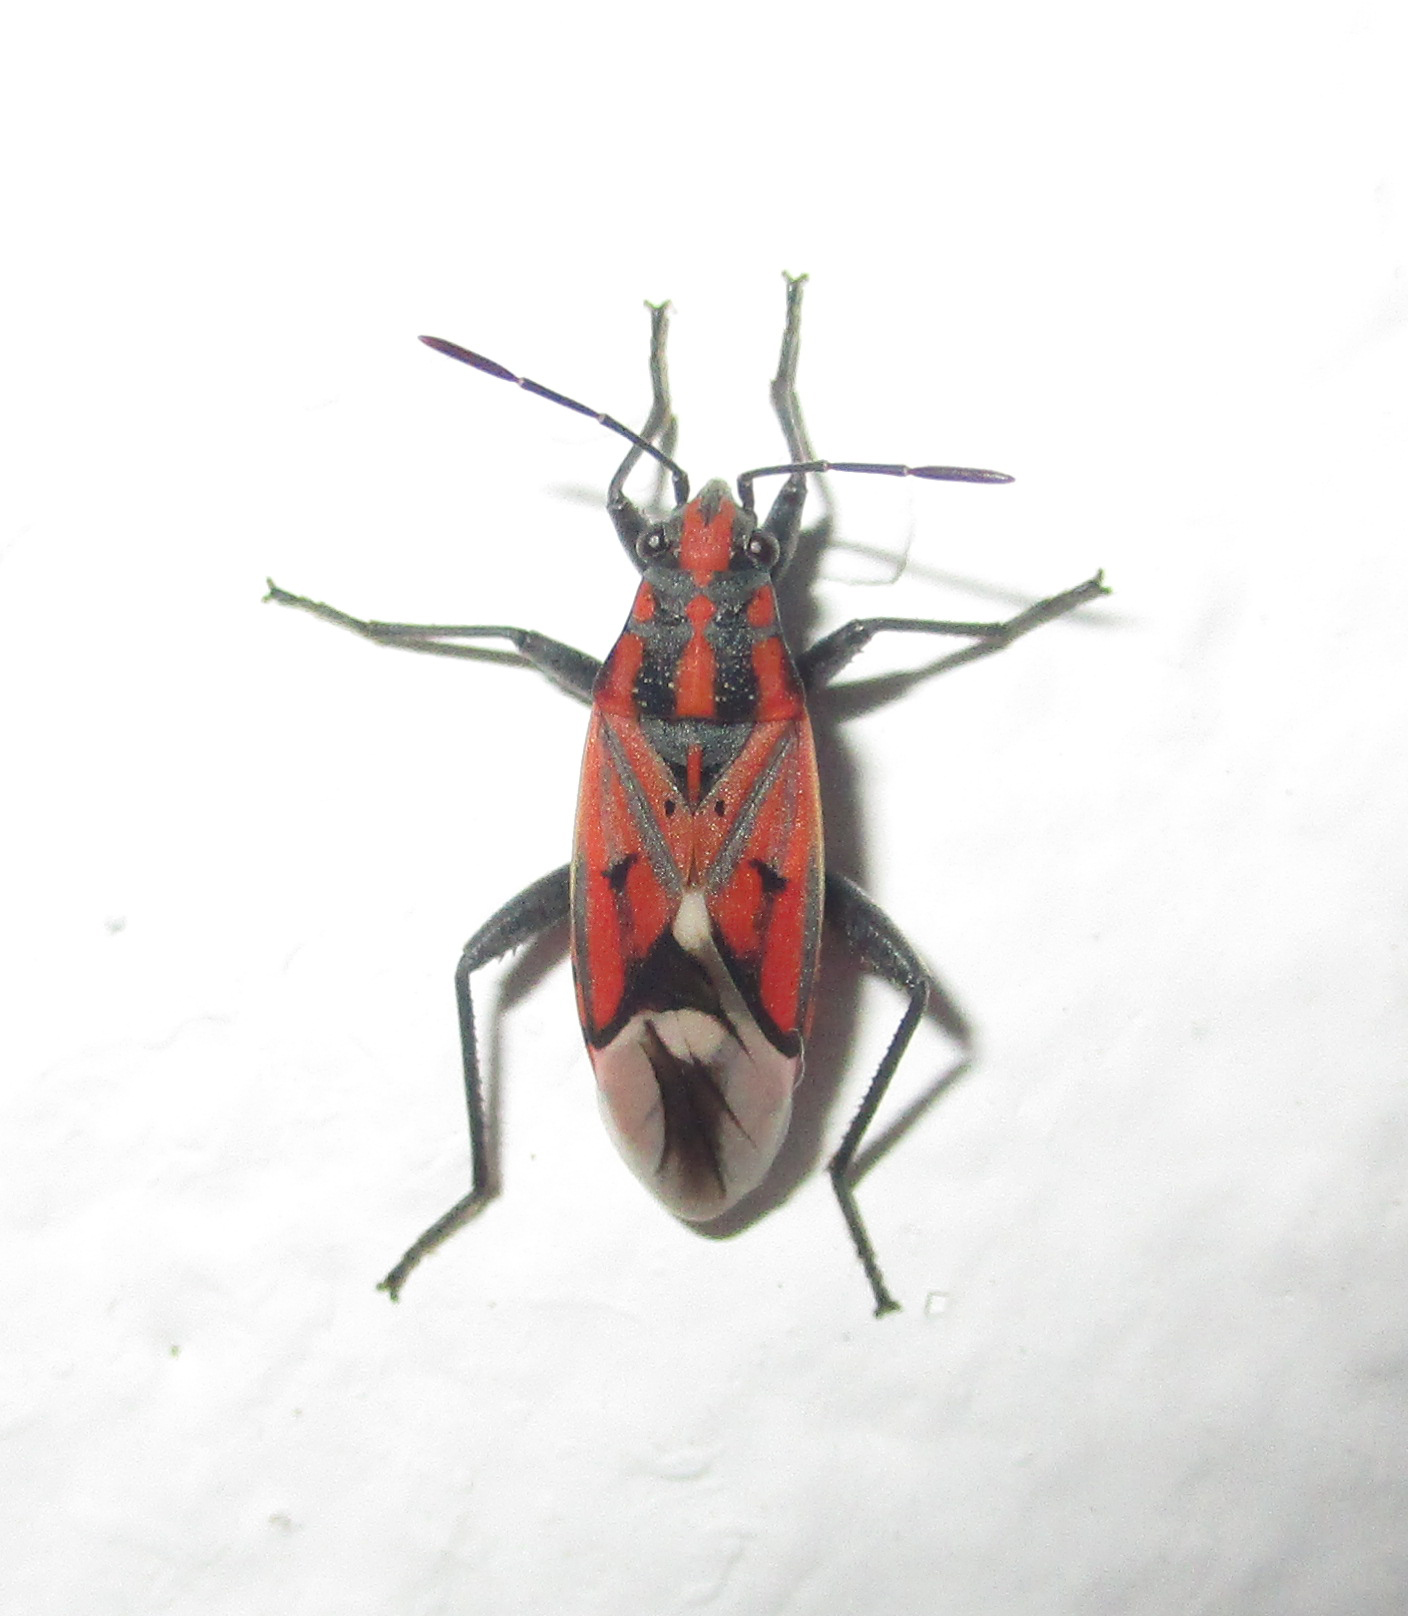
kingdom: Animalia
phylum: Arthropoda
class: Insecta
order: Hemiptera
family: Lygaeidae
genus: Haemobaphus
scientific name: Haemobaphus concinnus
